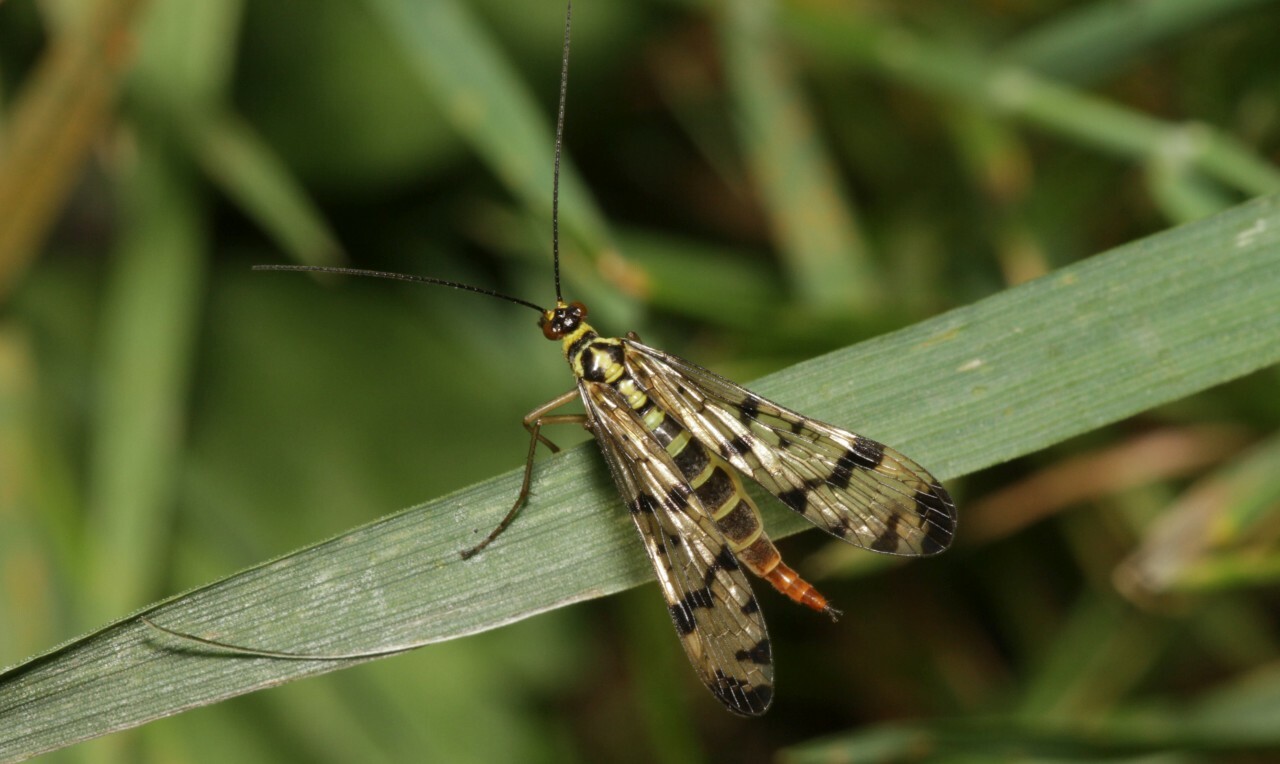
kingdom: Animalia
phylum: Arthropoda
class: Insecta
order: Mecoptera
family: Panorpidae
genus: Panorpa
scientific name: Panorpa germanica
